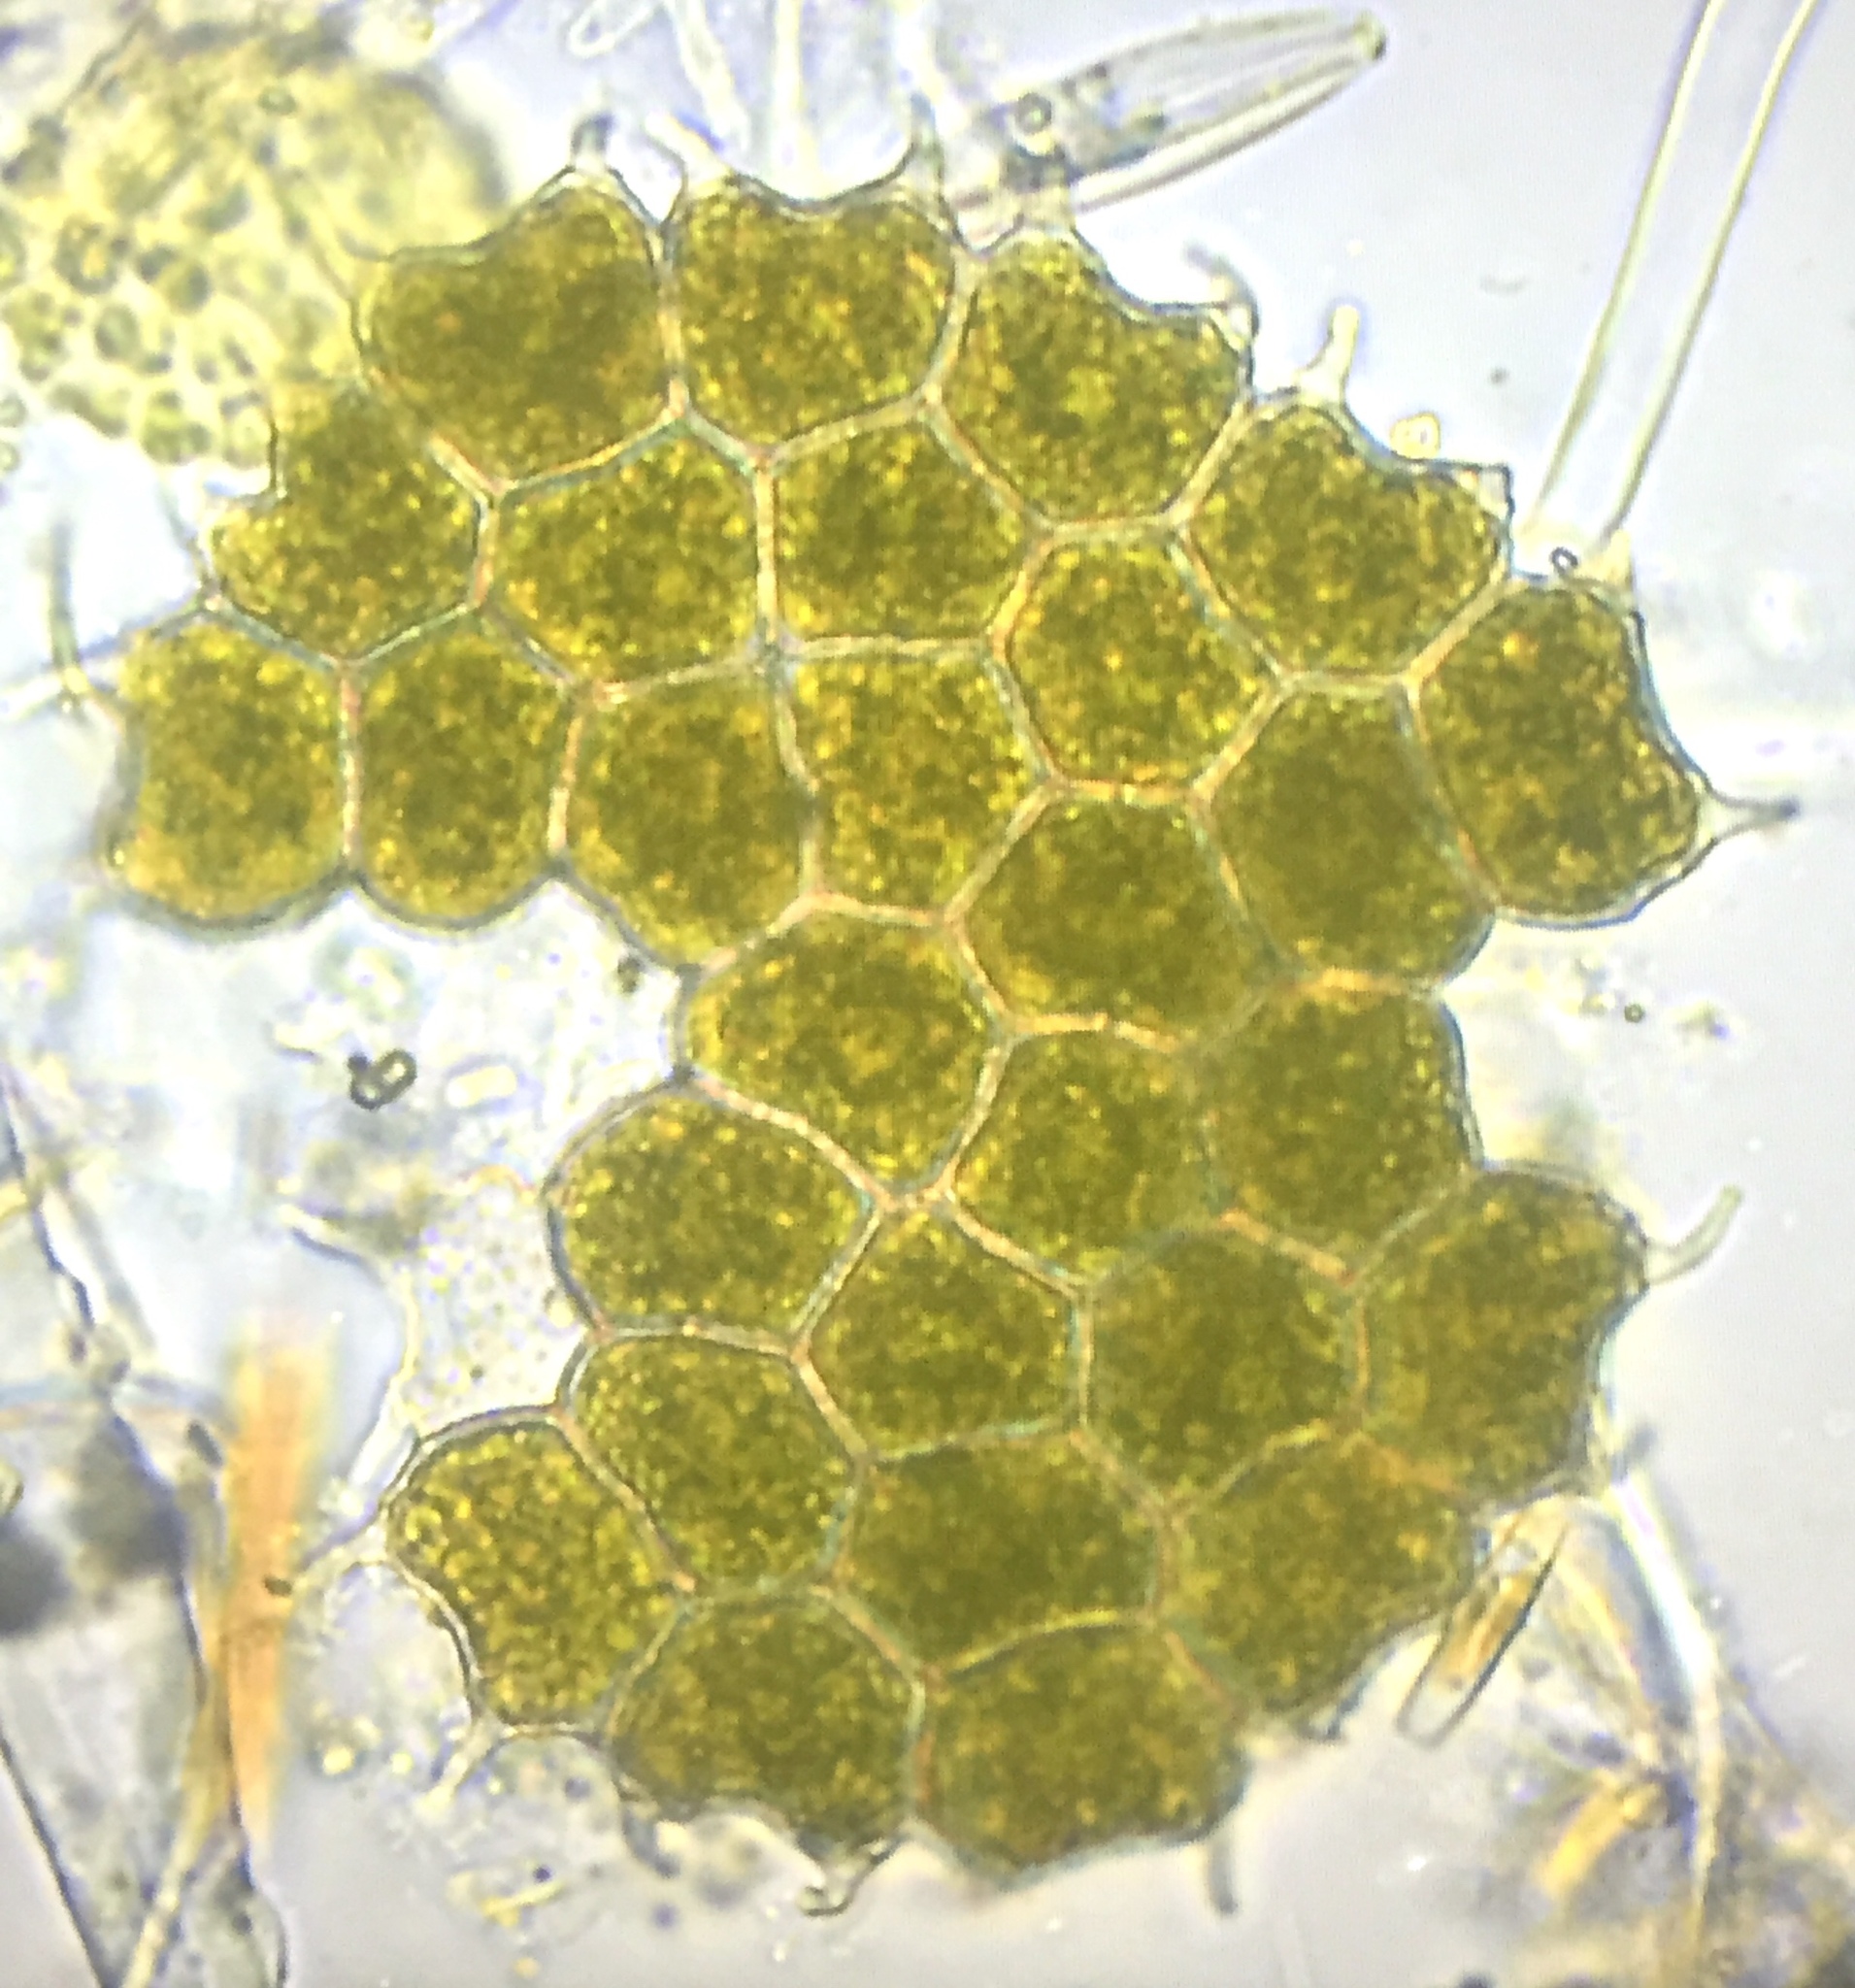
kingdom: Plantae
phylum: Chlorophyta
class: Chlorophyceae
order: Sphaeropleales
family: Hydrodictyaceae
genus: Pseudopediastrum
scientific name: Pseudopediastrum boryanum
